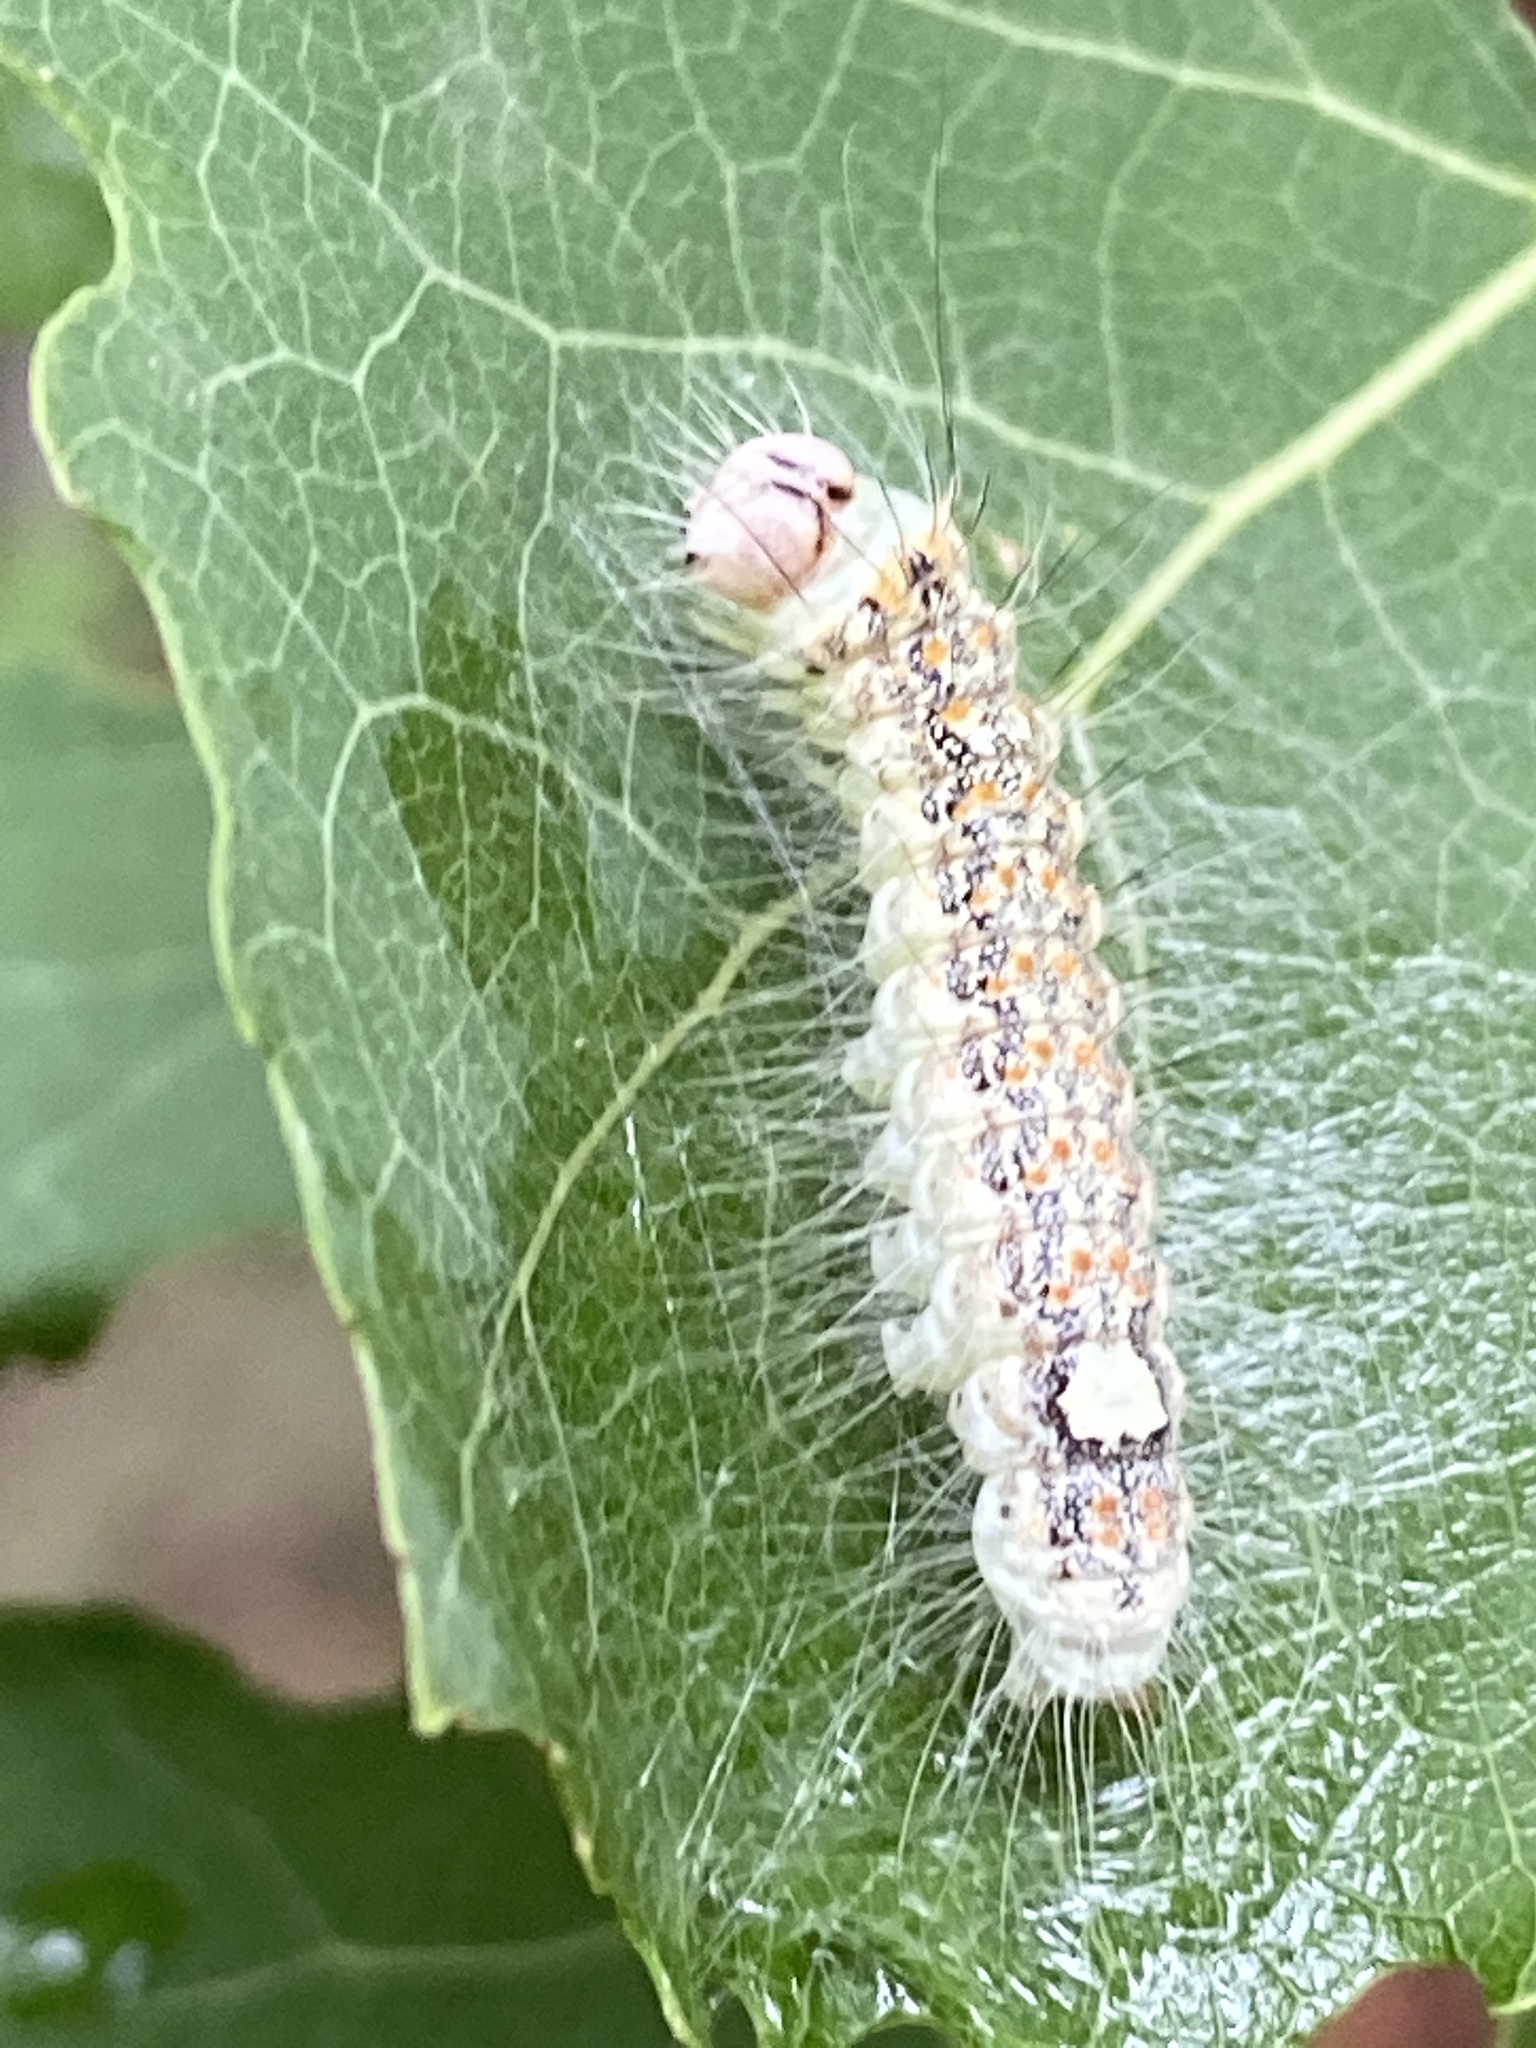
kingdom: Animalia
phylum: Arthropoda
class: Insecta
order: Lepidoptera
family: Noctuidae
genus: Acronicta
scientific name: Acronicta megacephala
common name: Poplar grey
